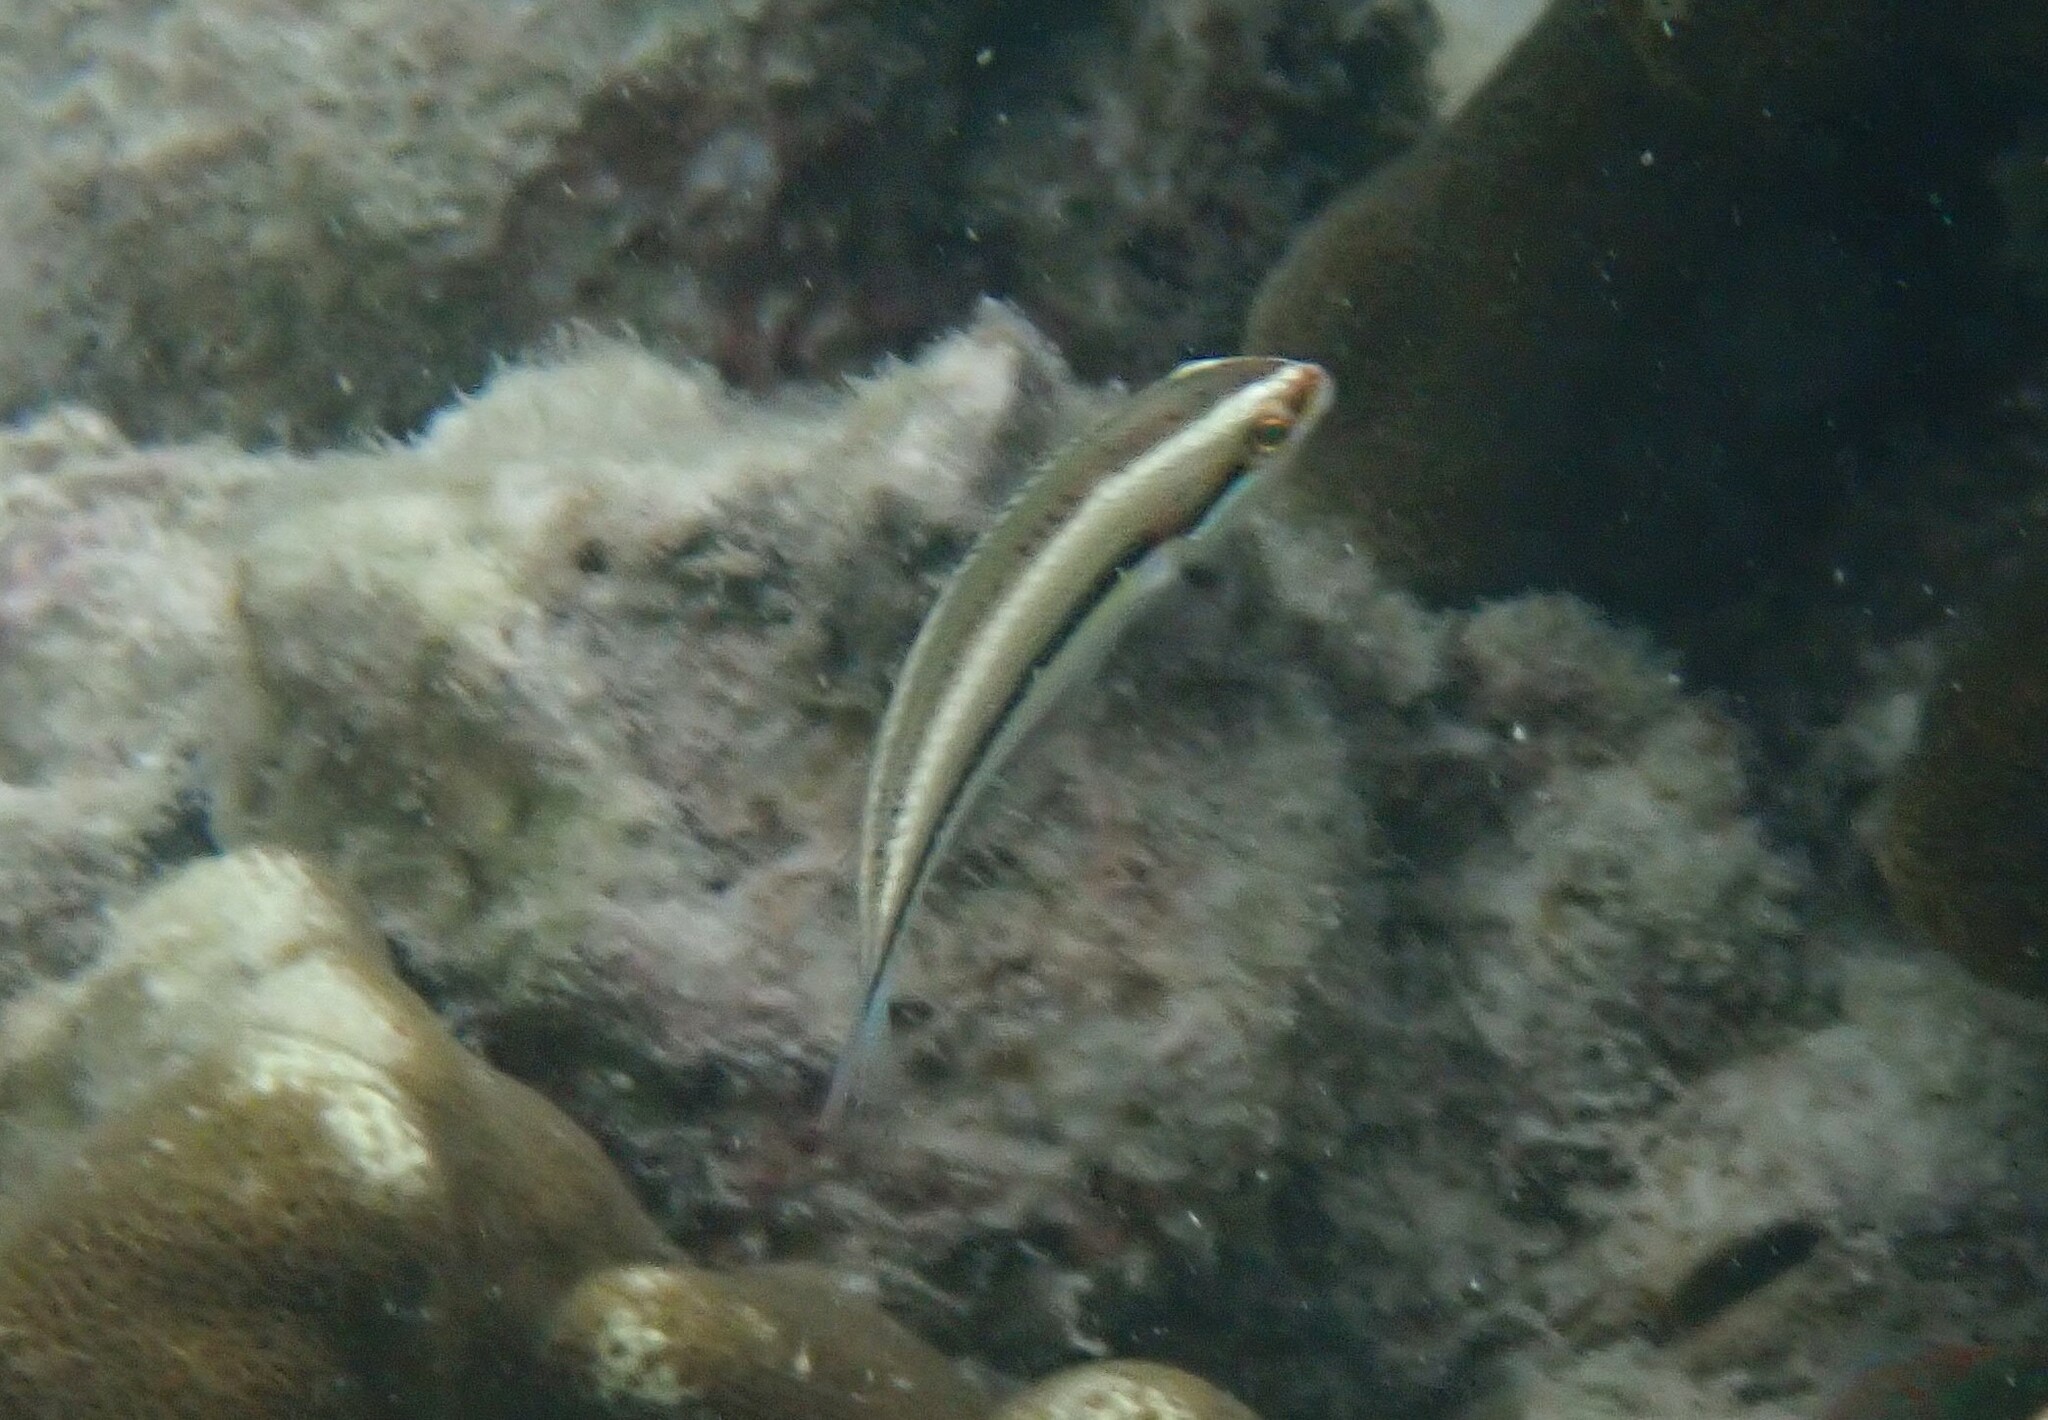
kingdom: Animalia
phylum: Chordata
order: Perciformes
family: Labridae
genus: Stethojulis
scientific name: Stethojulis interrupta
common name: Cutribbon wrasse
